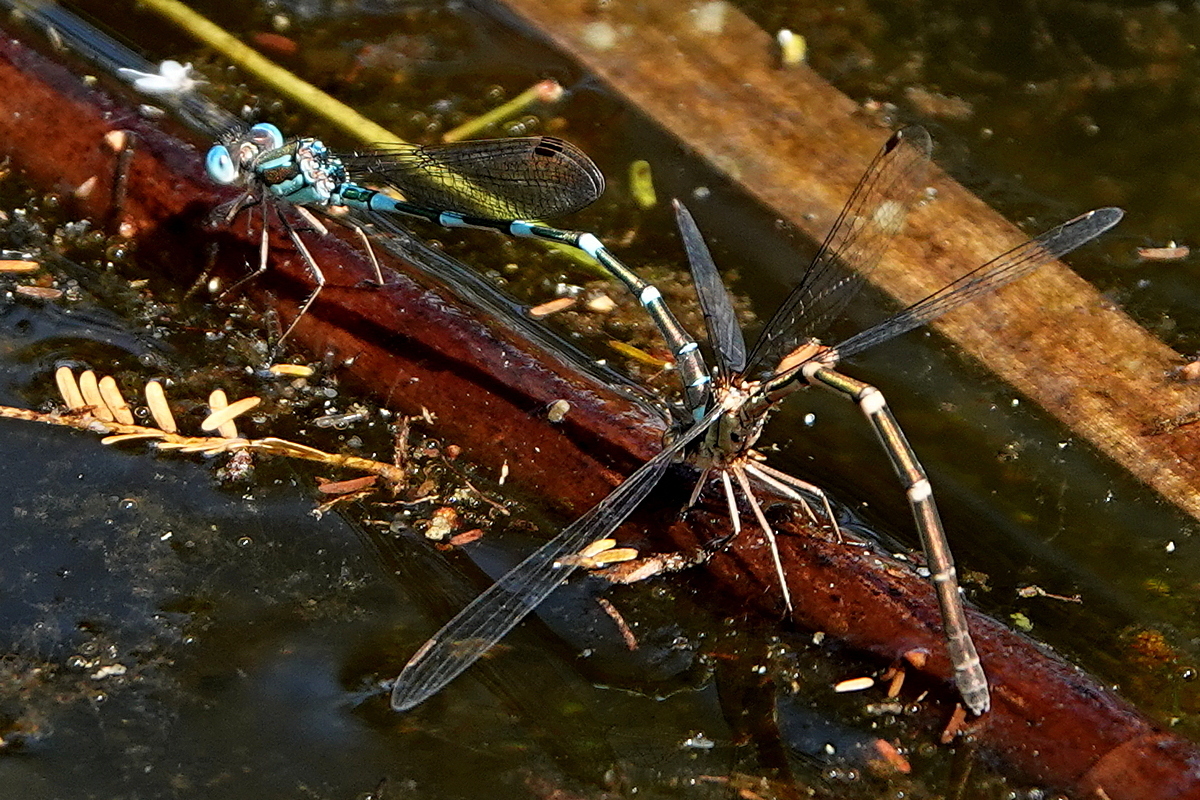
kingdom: Animalia
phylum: Arthropoda
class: Insecta
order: Odonata
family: Lestidae
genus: Austrolestes
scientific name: Austrolestes leda
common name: Wandering ringtail
